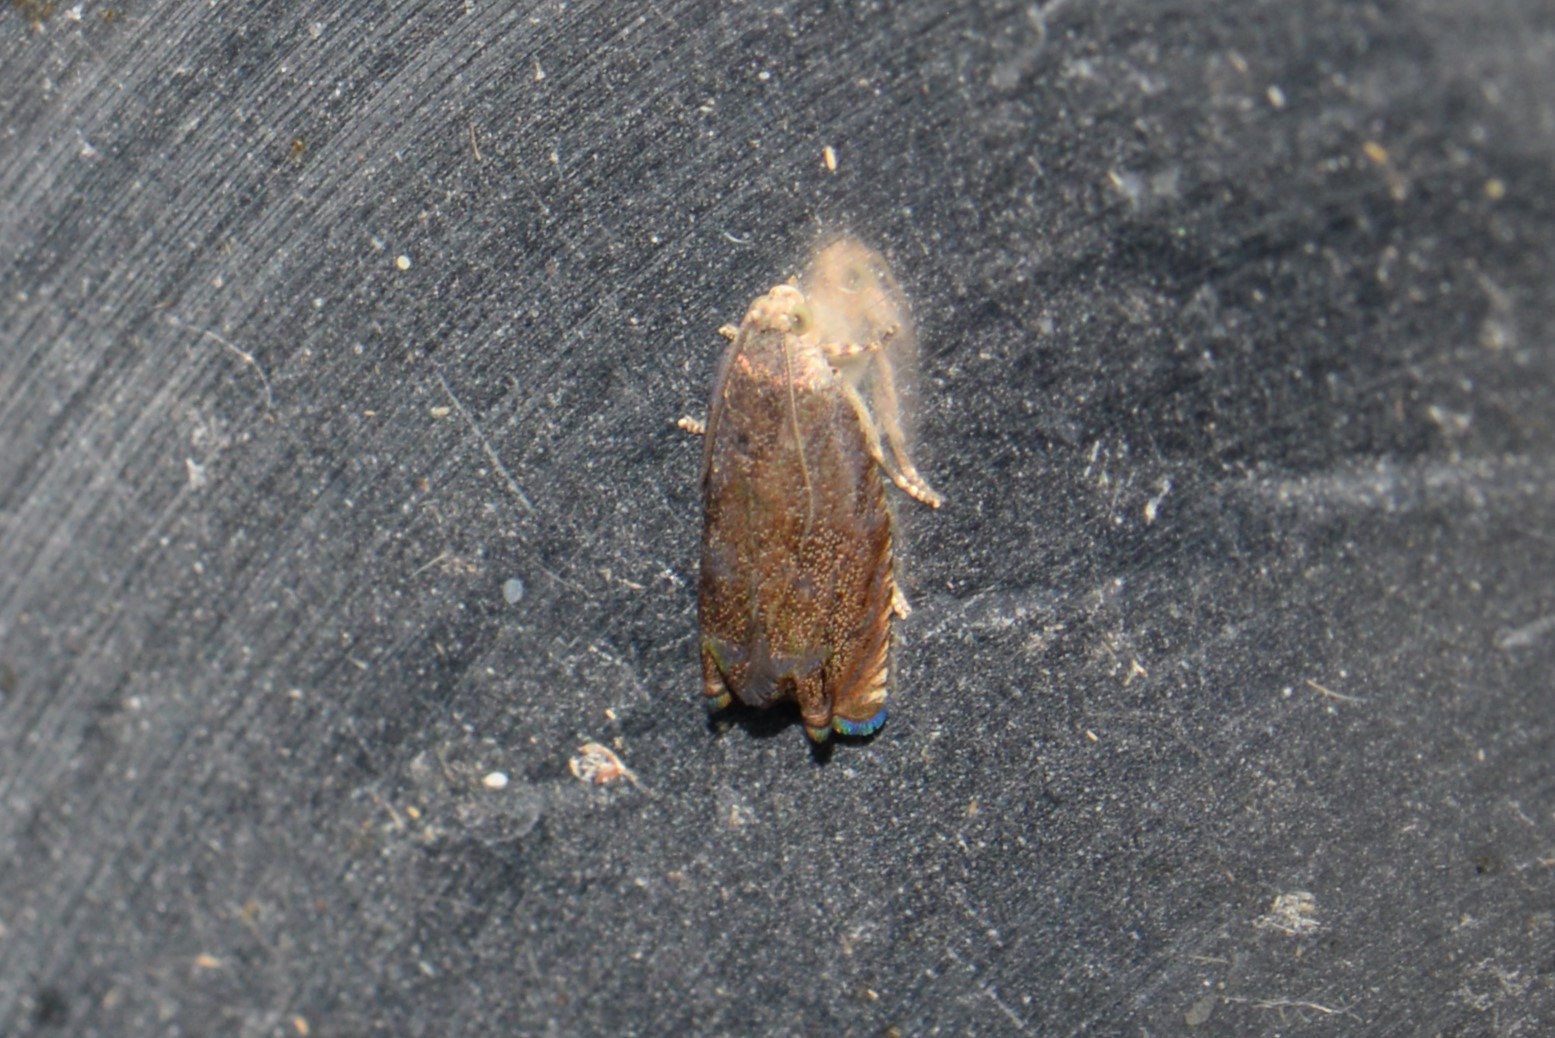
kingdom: Animalia
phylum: Arthropoda
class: Insecta
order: Lepidoptera
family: Tortricidae
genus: Cydia
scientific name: Cydia caryana
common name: Hickory shuckworm moth
